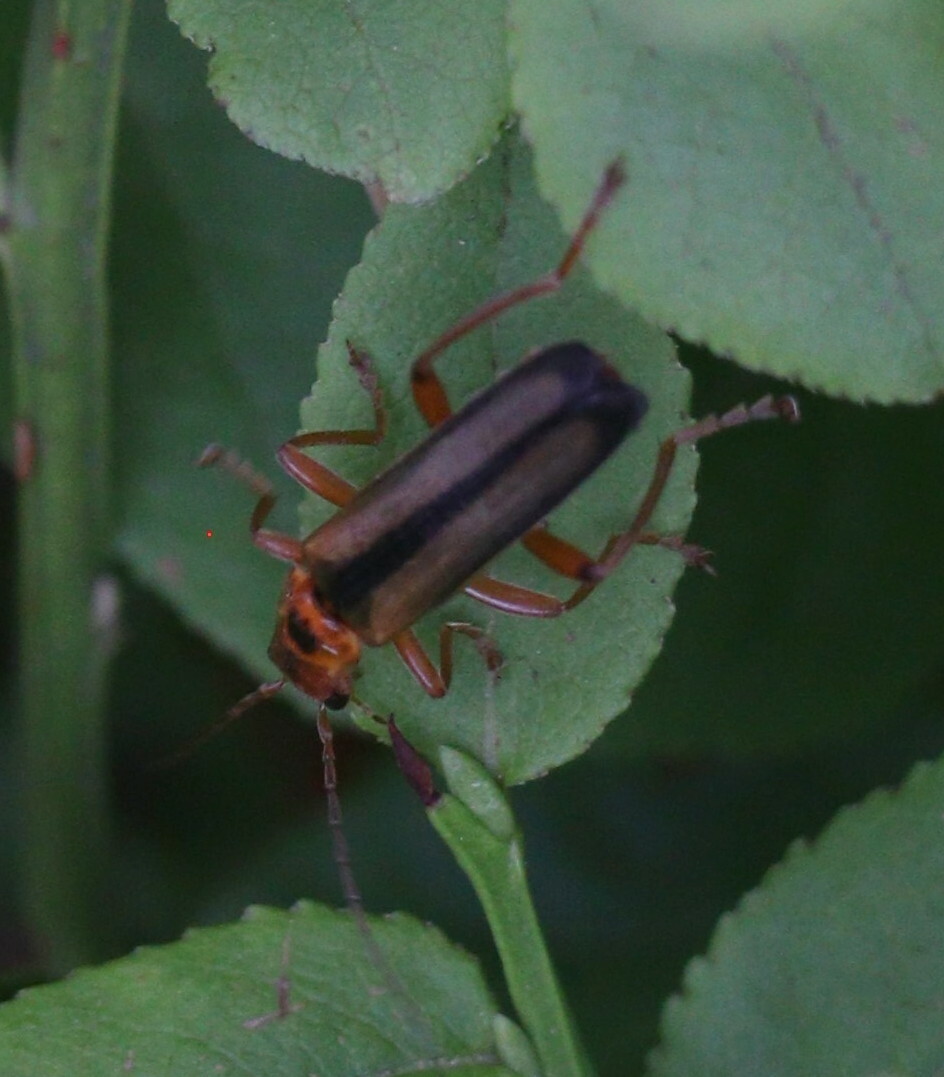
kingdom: Animalia
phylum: Arthropoda
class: Insecta
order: Coleoptera
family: Cantharidae
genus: Metacantharis
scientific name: Metacantharis discoidea
